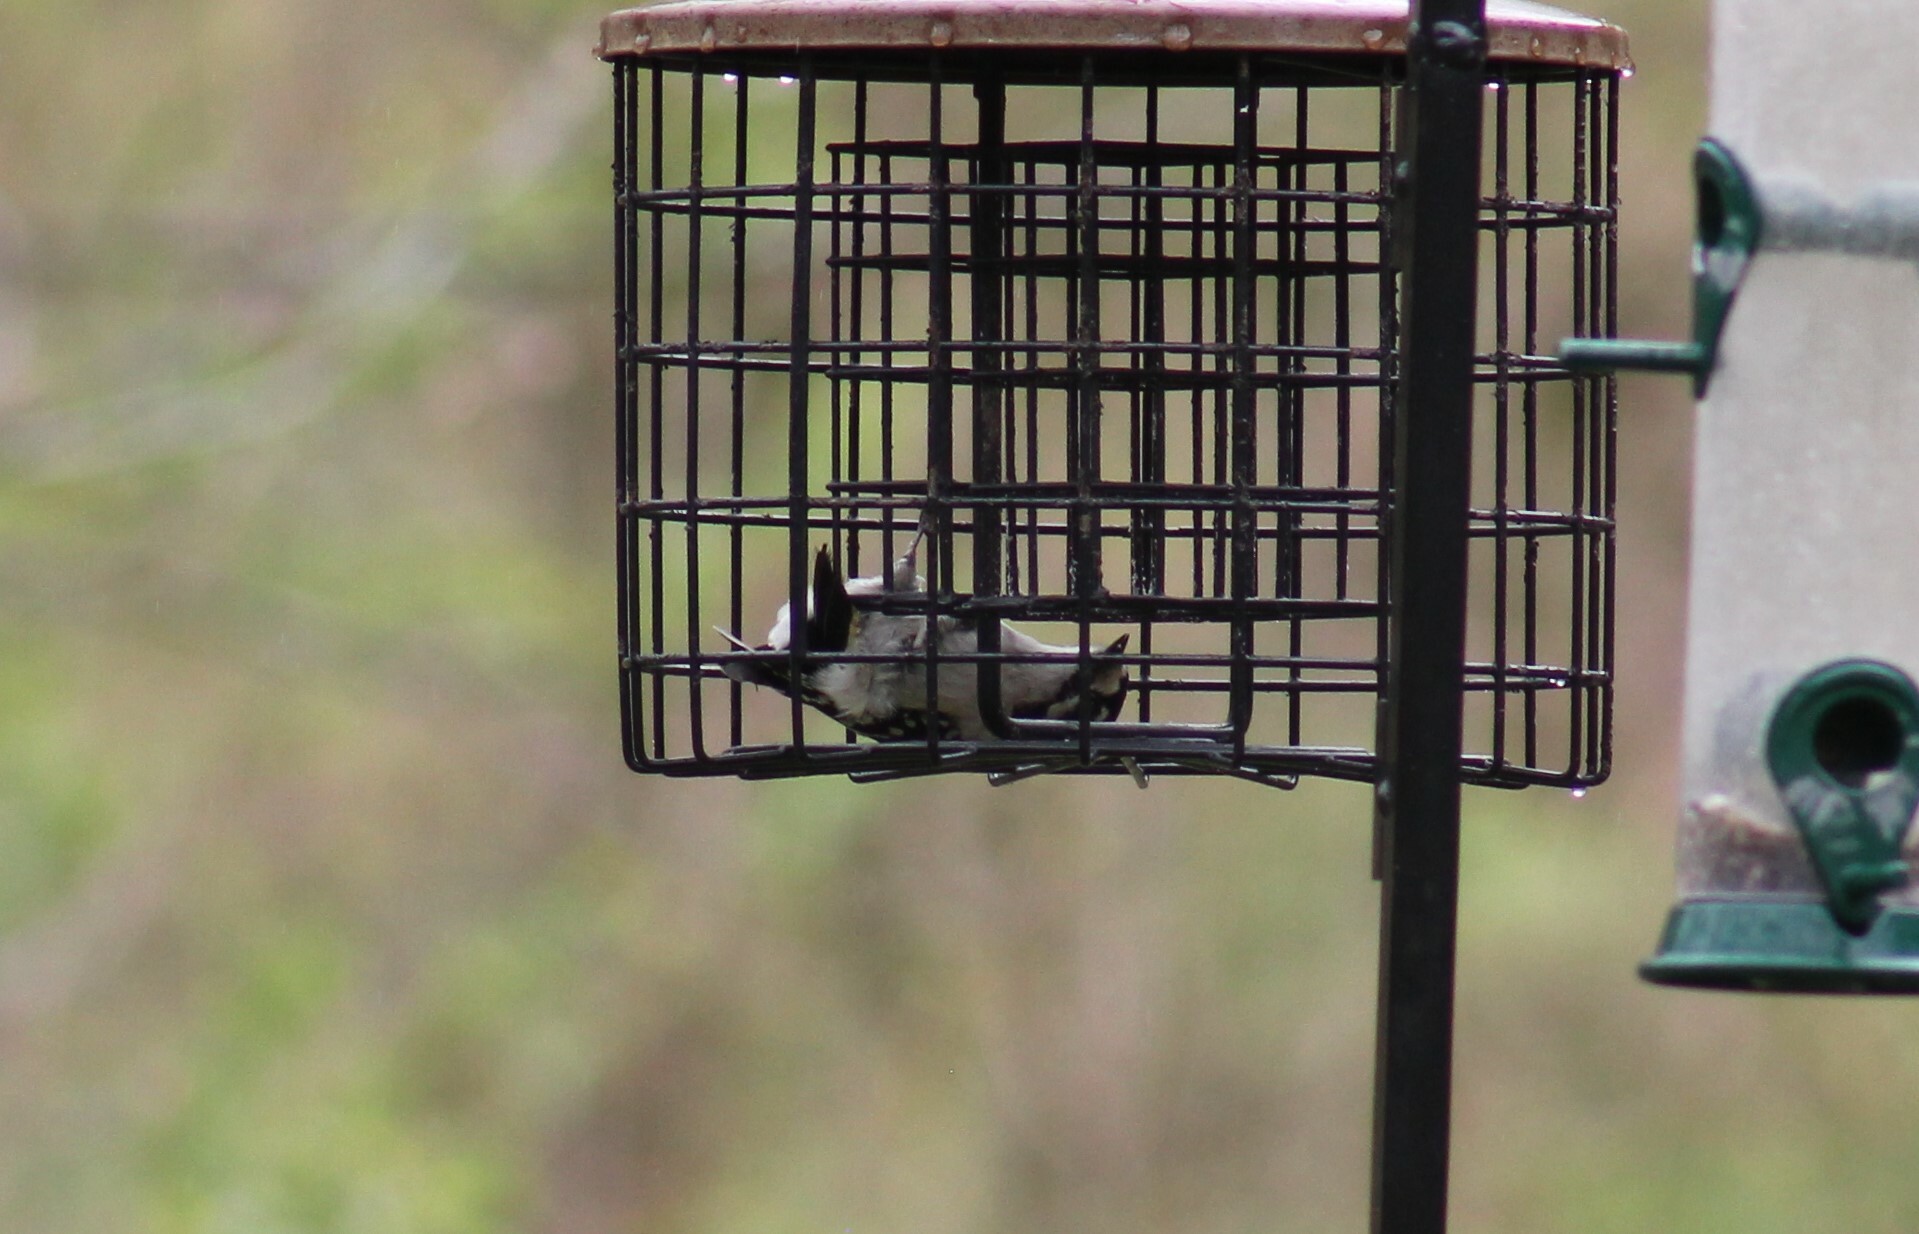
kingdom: Animalia
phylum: Chordata
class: Aves
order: Piciformes
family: Picidae
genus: Dryobates
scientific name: Dryobates pubescens
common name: Downy woodpecker
